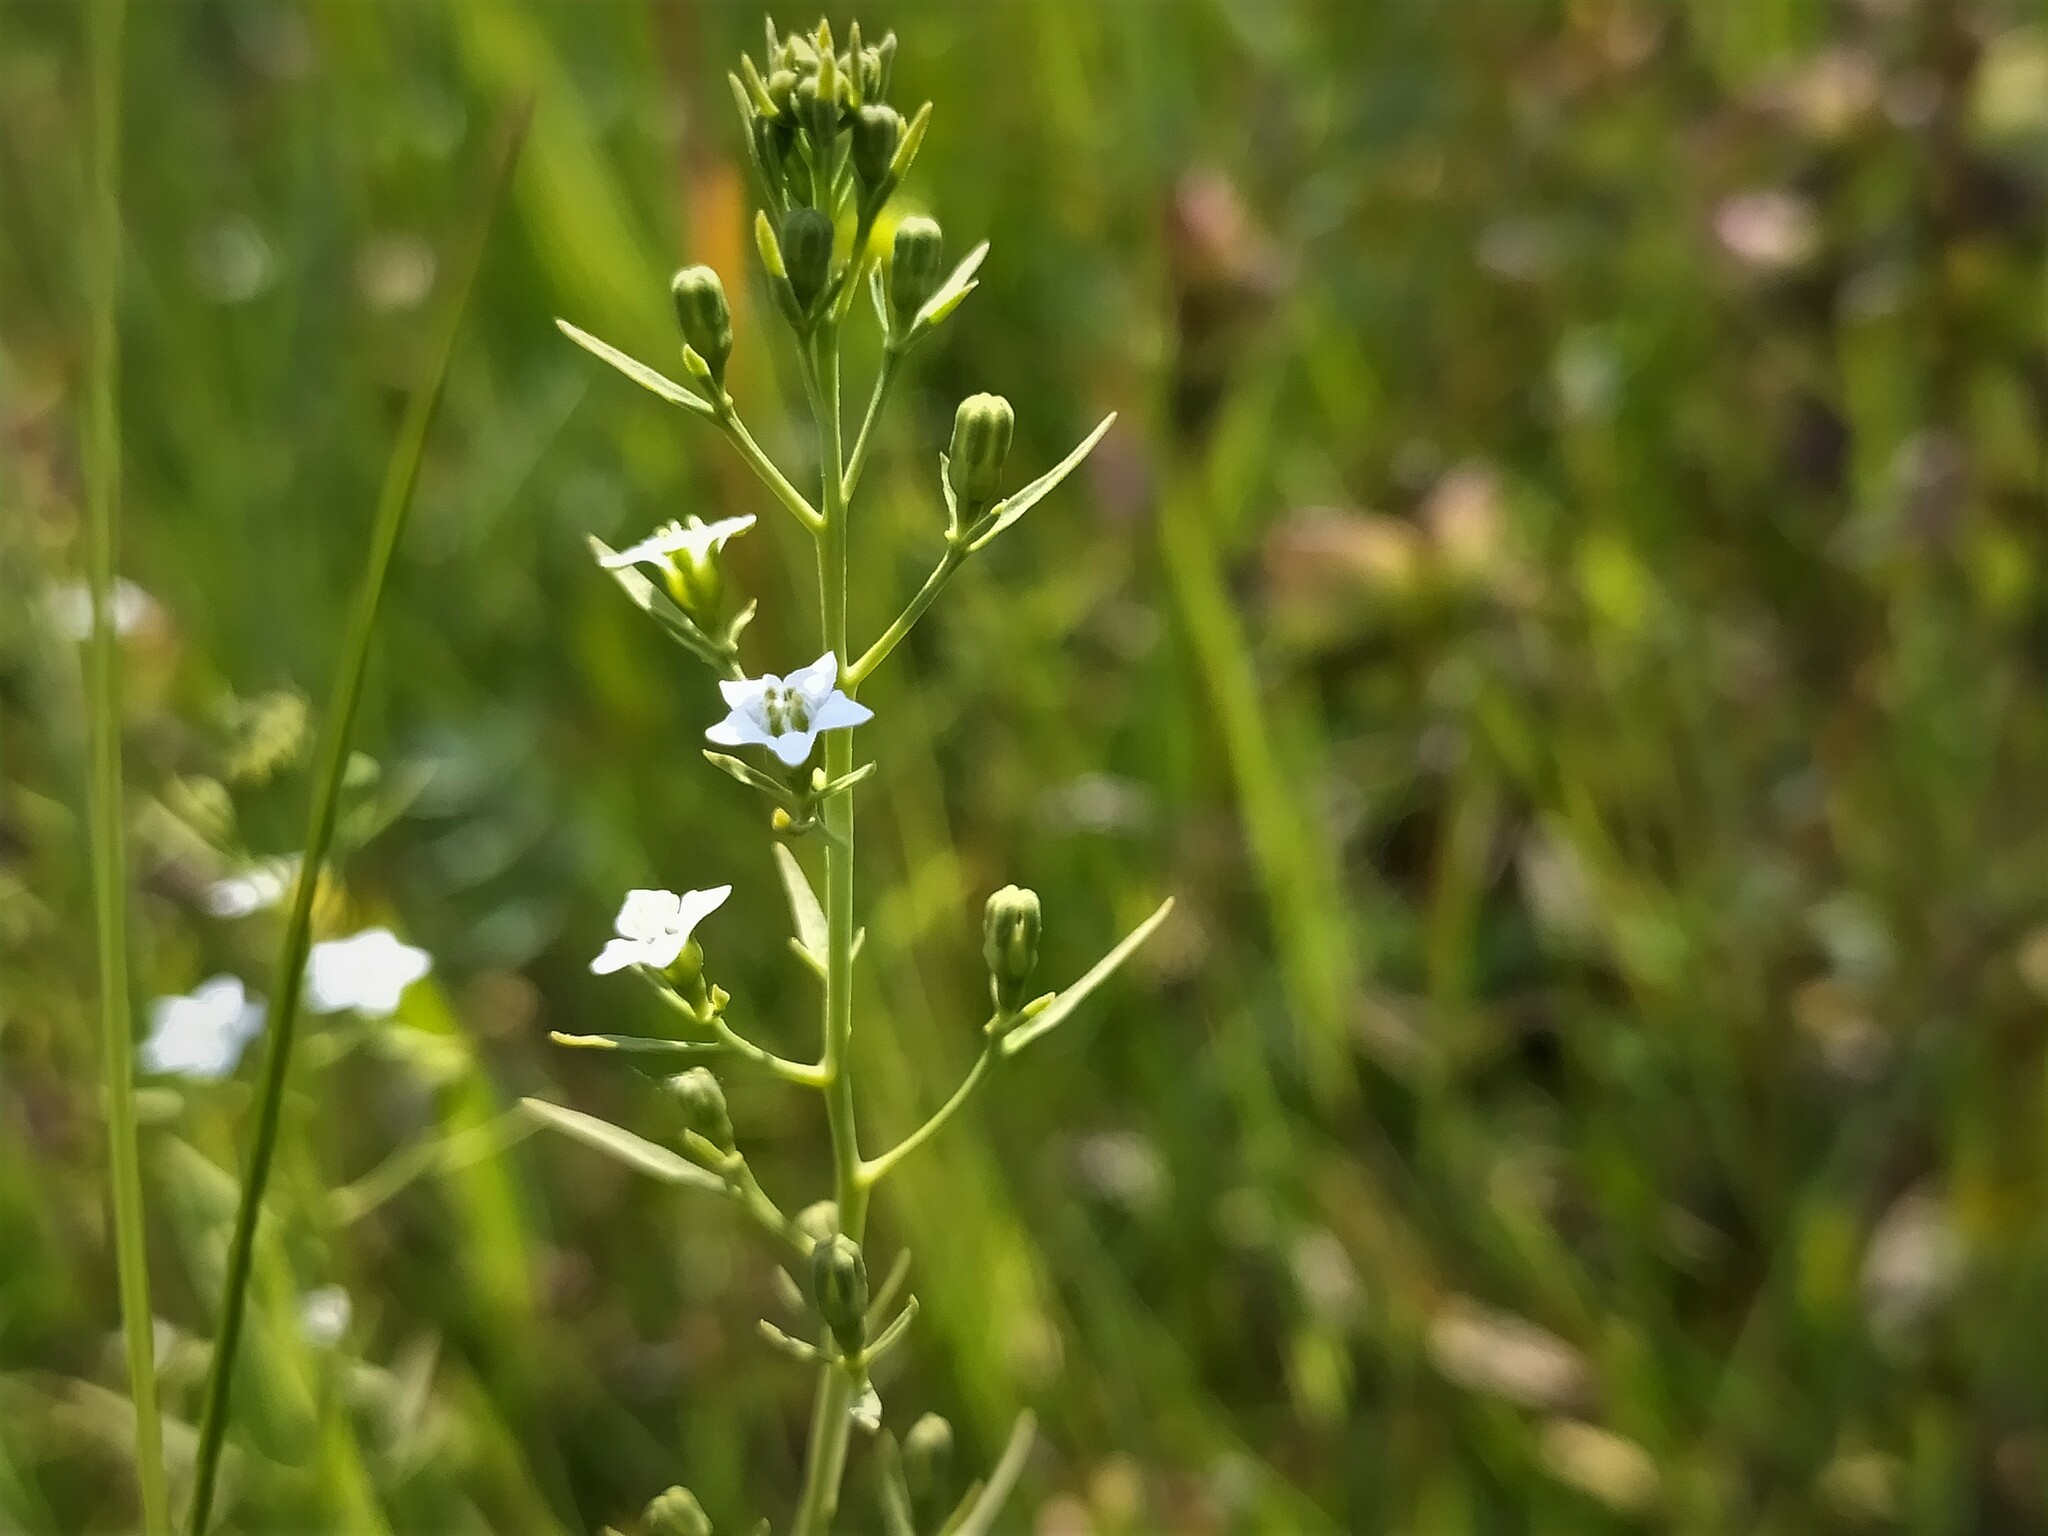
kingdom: Plantae
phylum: Tracheophyta
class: Magnoliopsida
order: Santalales
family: Thesiaceae
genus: Thesium
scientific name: Thesium pyrenaicum
